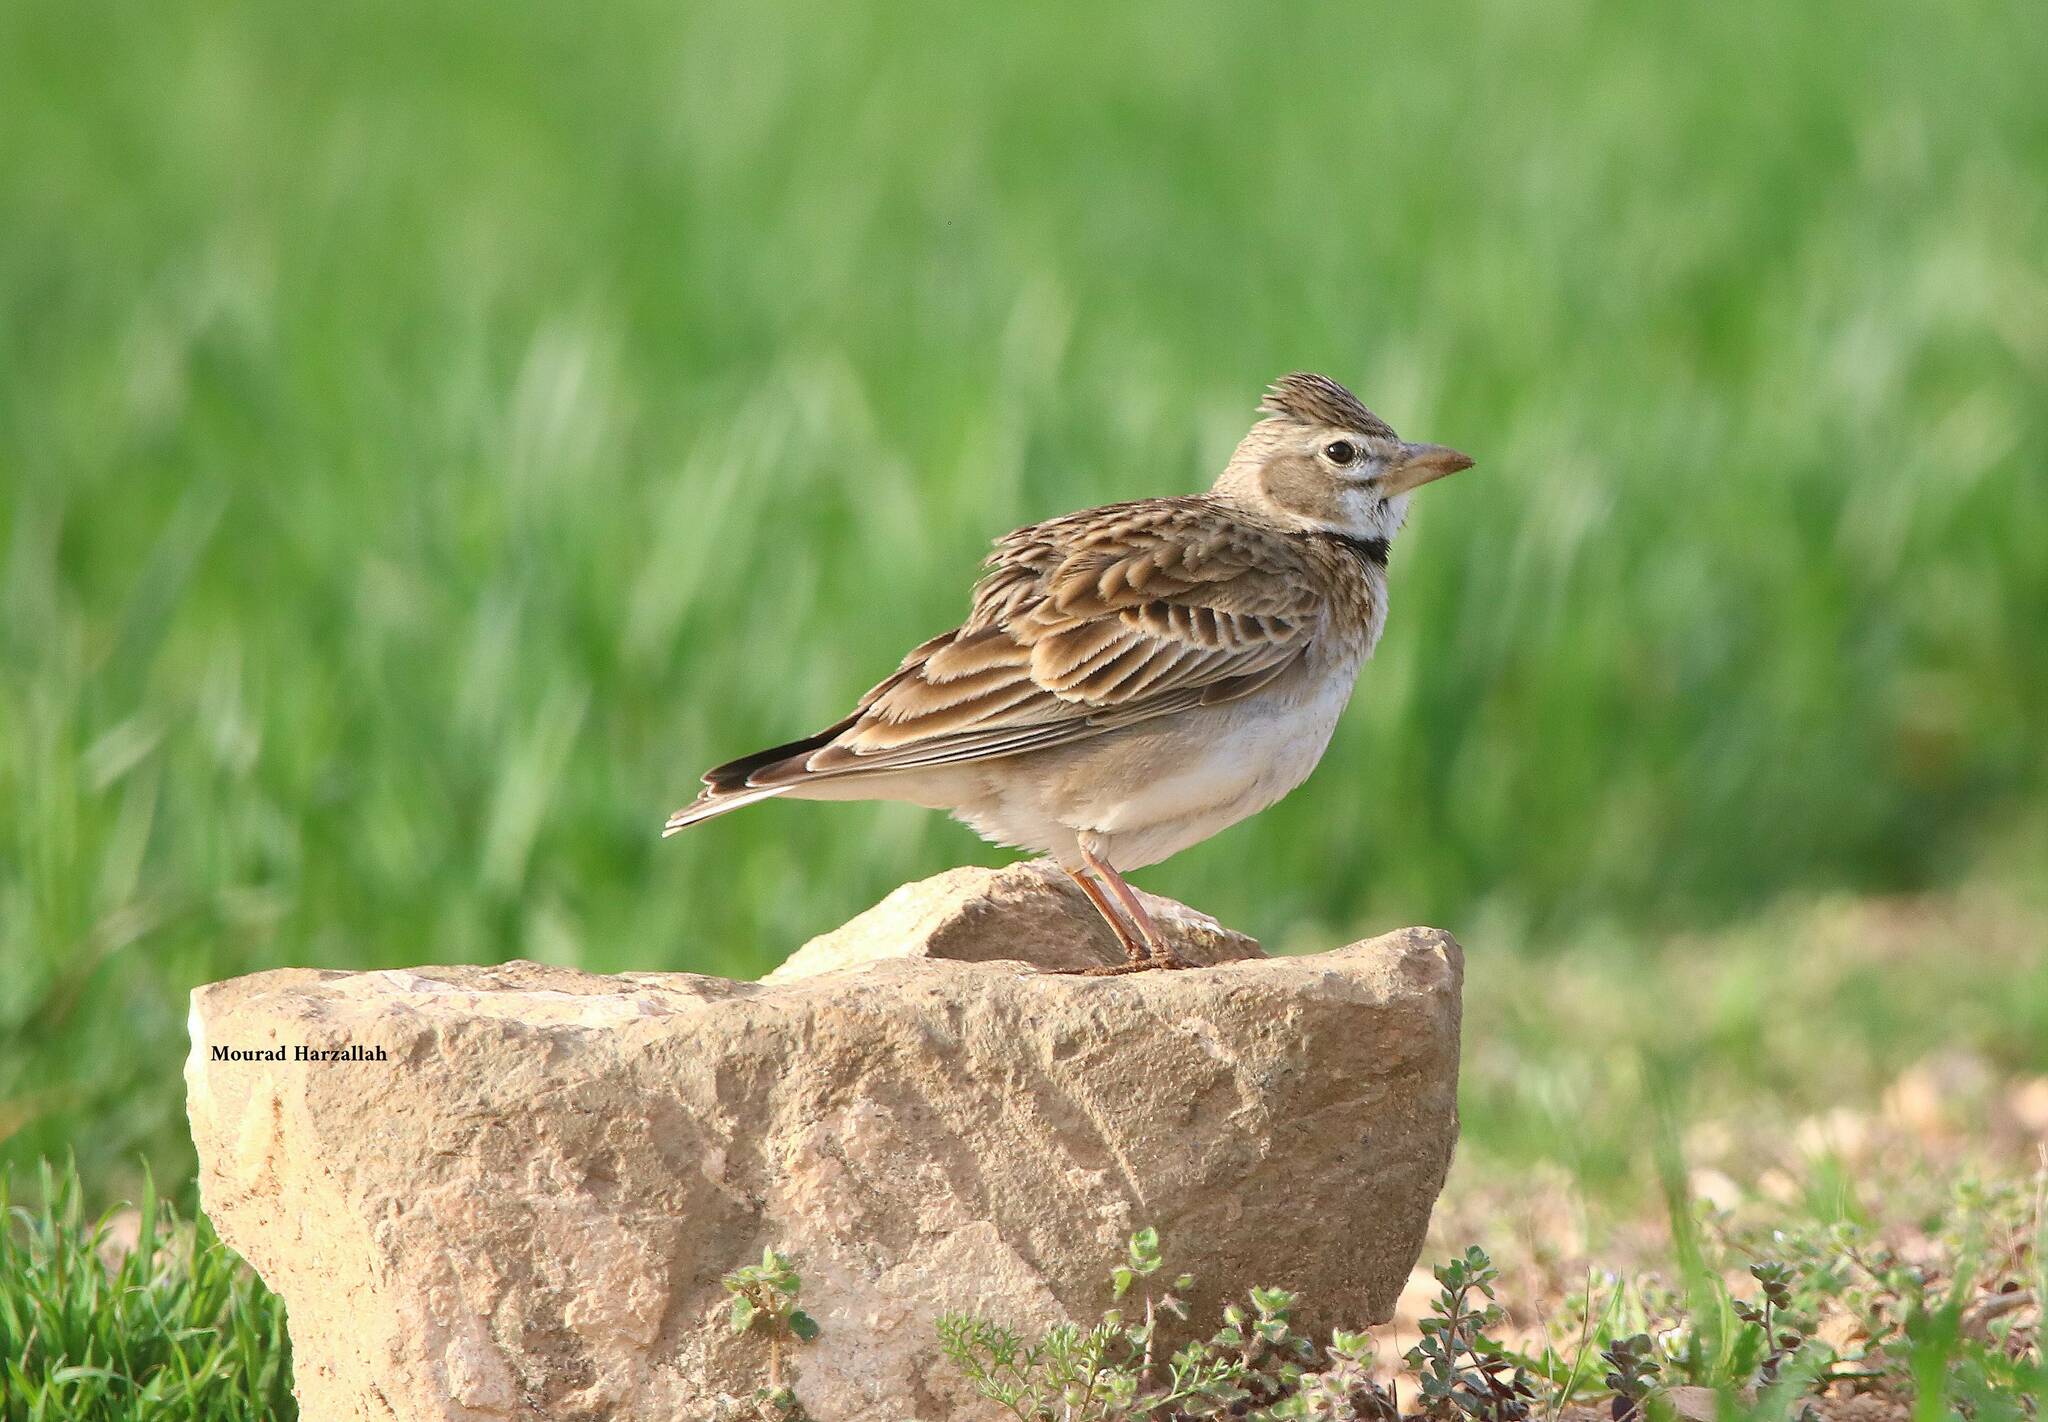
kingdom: Animalia
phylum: Chordata
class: Aves
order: Passeriformes
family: Alaudidae
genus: Melanocorypha
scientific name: Melanocorypha calandra
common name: Calandra lark
